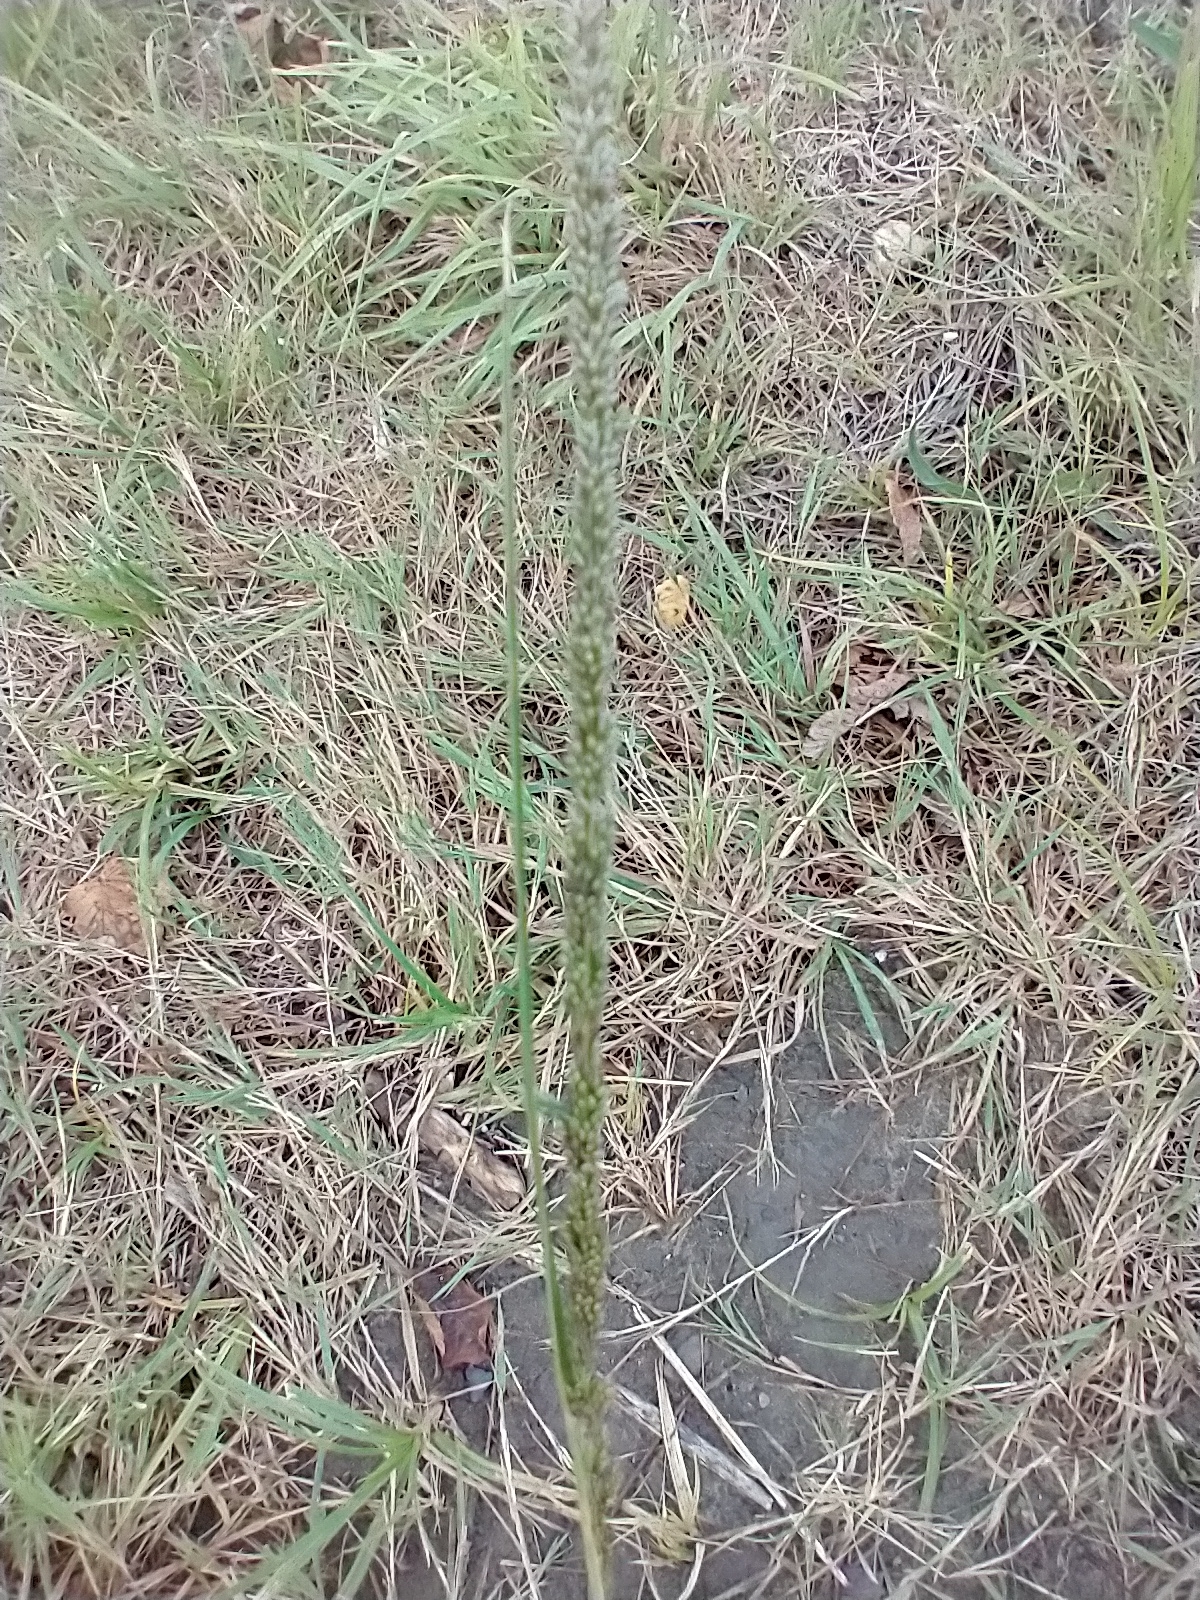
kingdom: Plantae
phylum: Tracheophyta
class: Liliopsida
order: Poales
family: Poaceae
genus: Sporobolus
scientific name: Sporobolus indicus
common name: Smut grass
